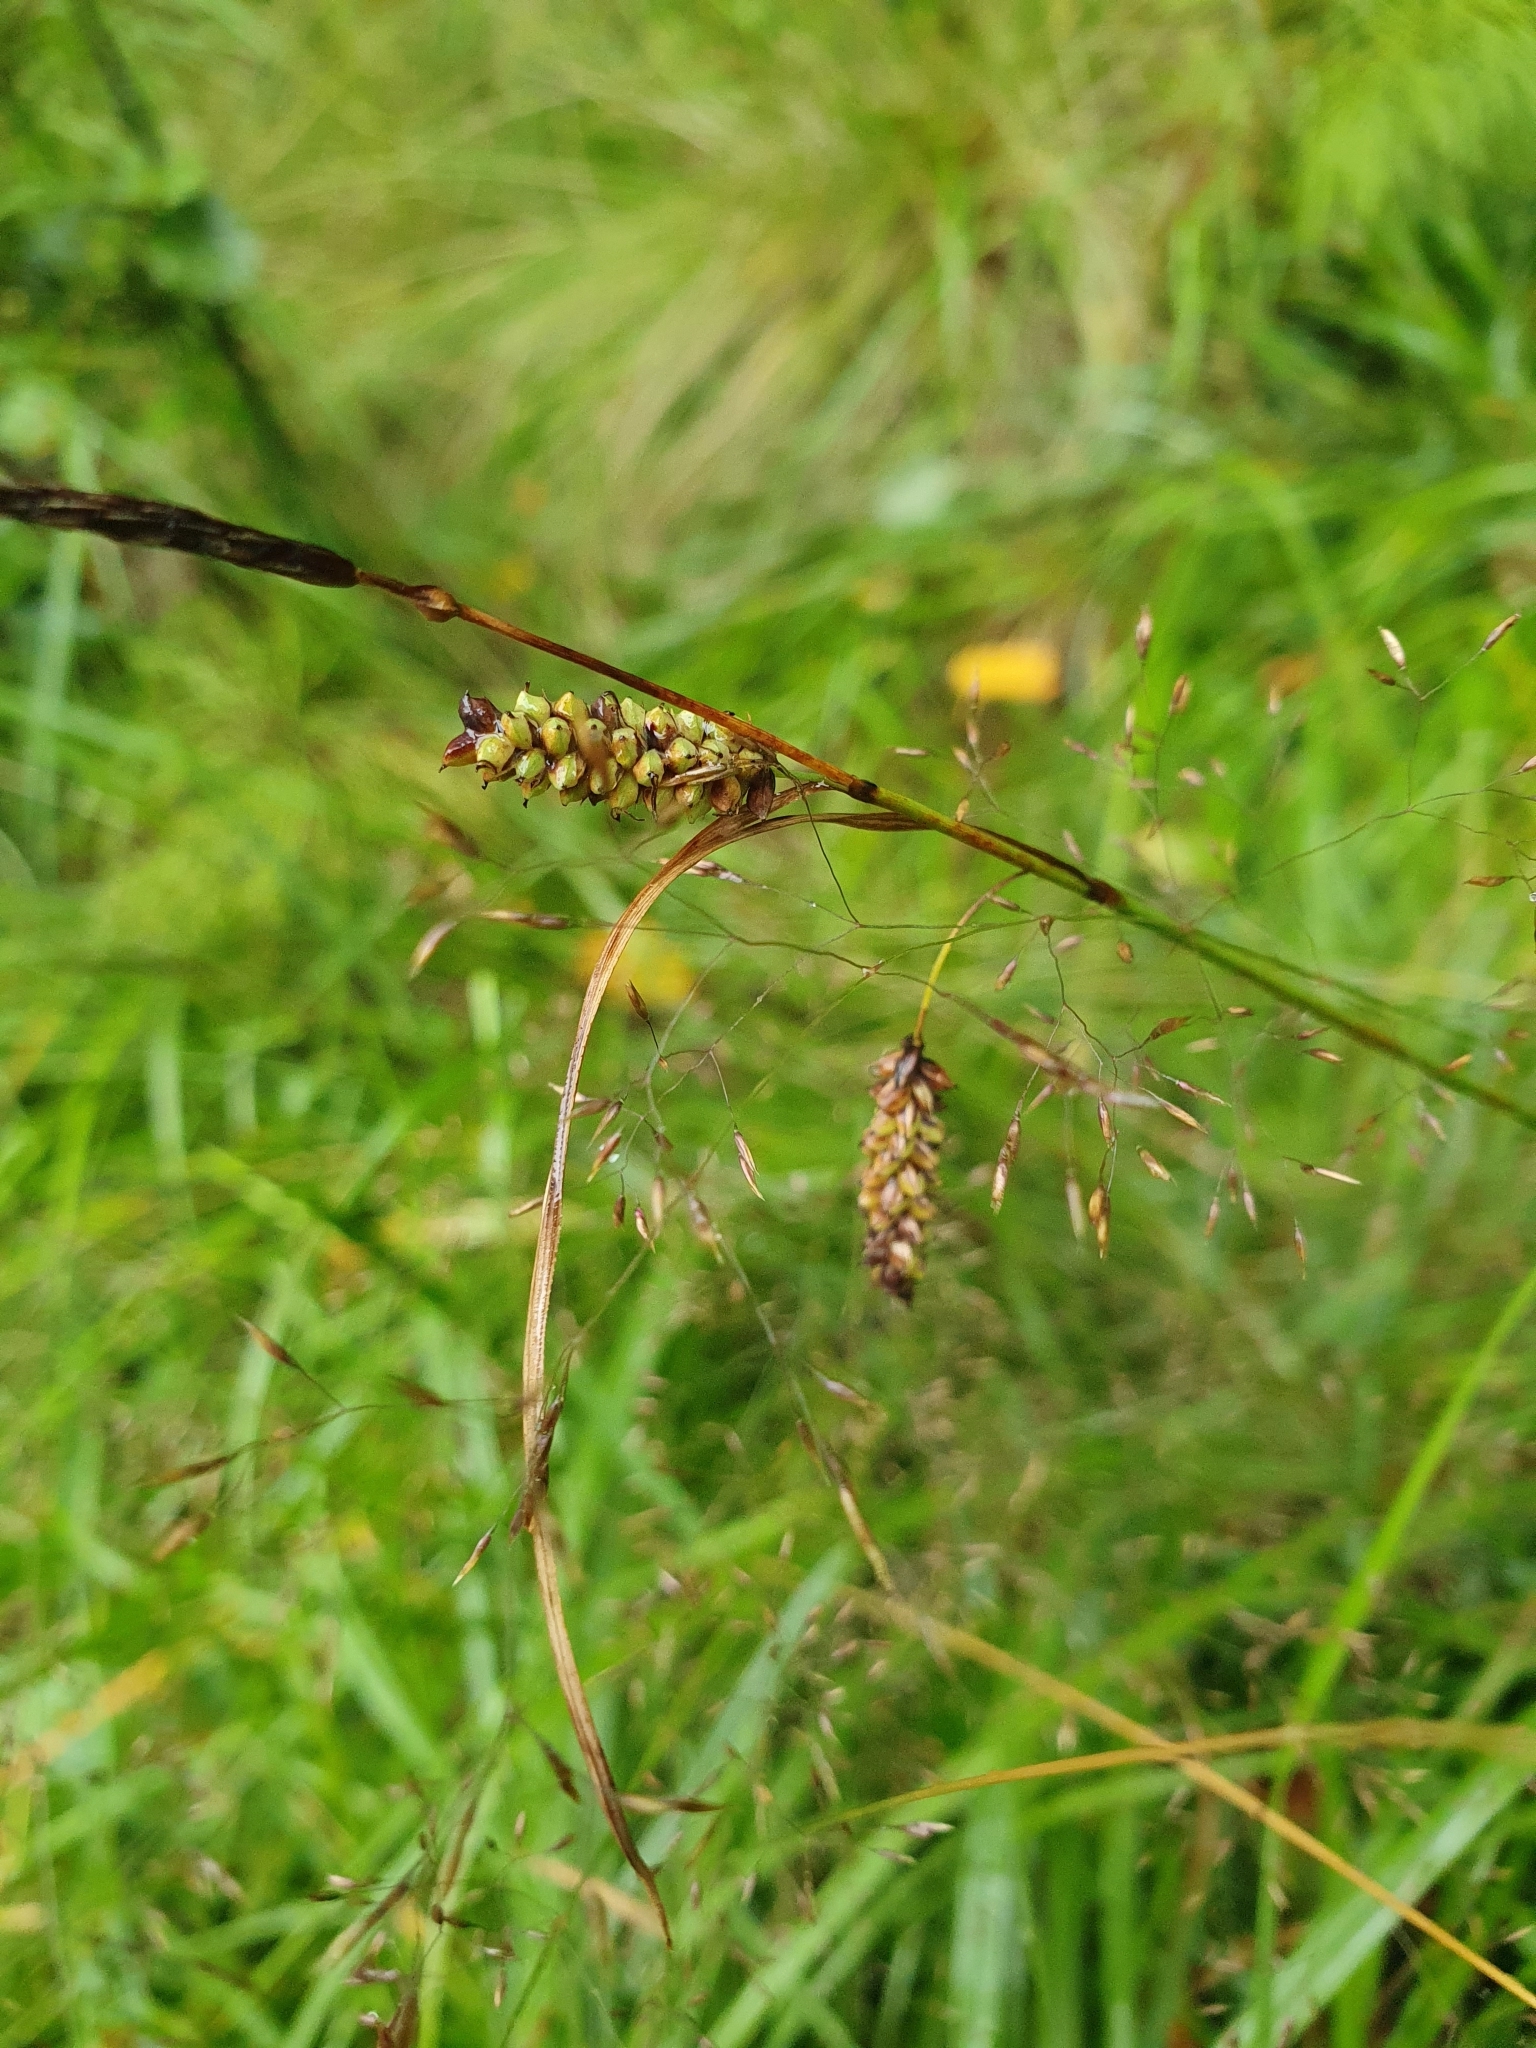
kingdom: Plantae
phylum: Tracheophyta
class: Liliopsida
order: Poales
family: Cyperaceae
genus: Carex
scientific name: Carex flacca
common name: Glaucous sedge
